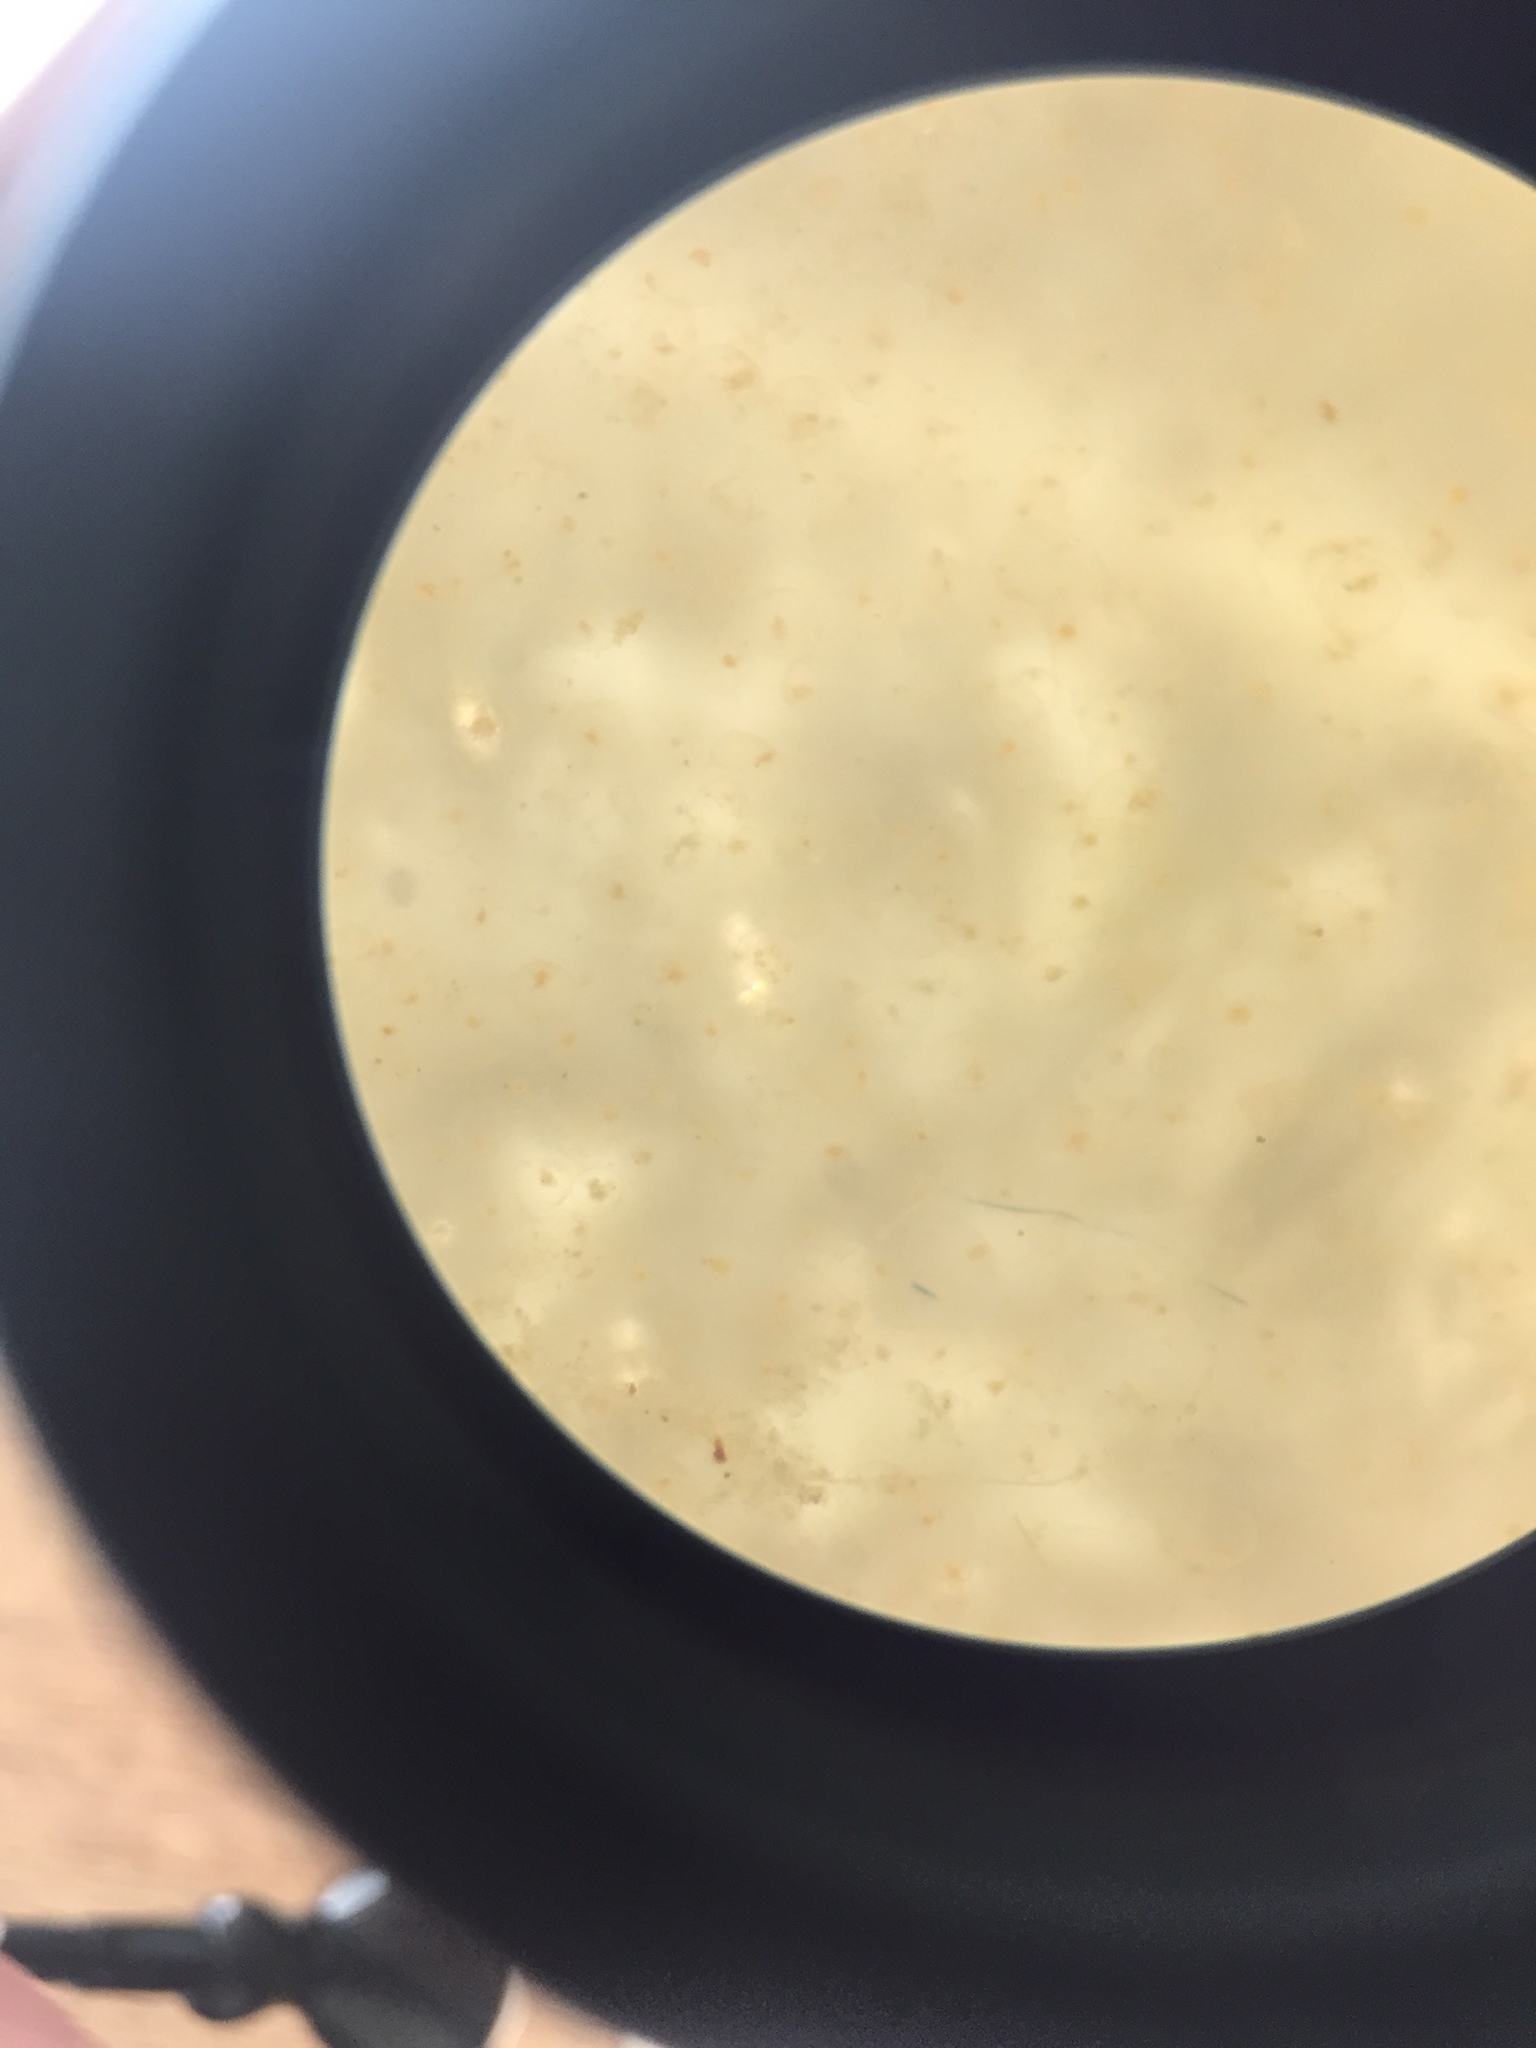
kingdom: Chromista
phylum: Myzozoa
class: Dinophyceae
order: Noctilucales
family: Noctilucaceae
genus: Noctiluca
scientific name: Noctiluca scintillans
